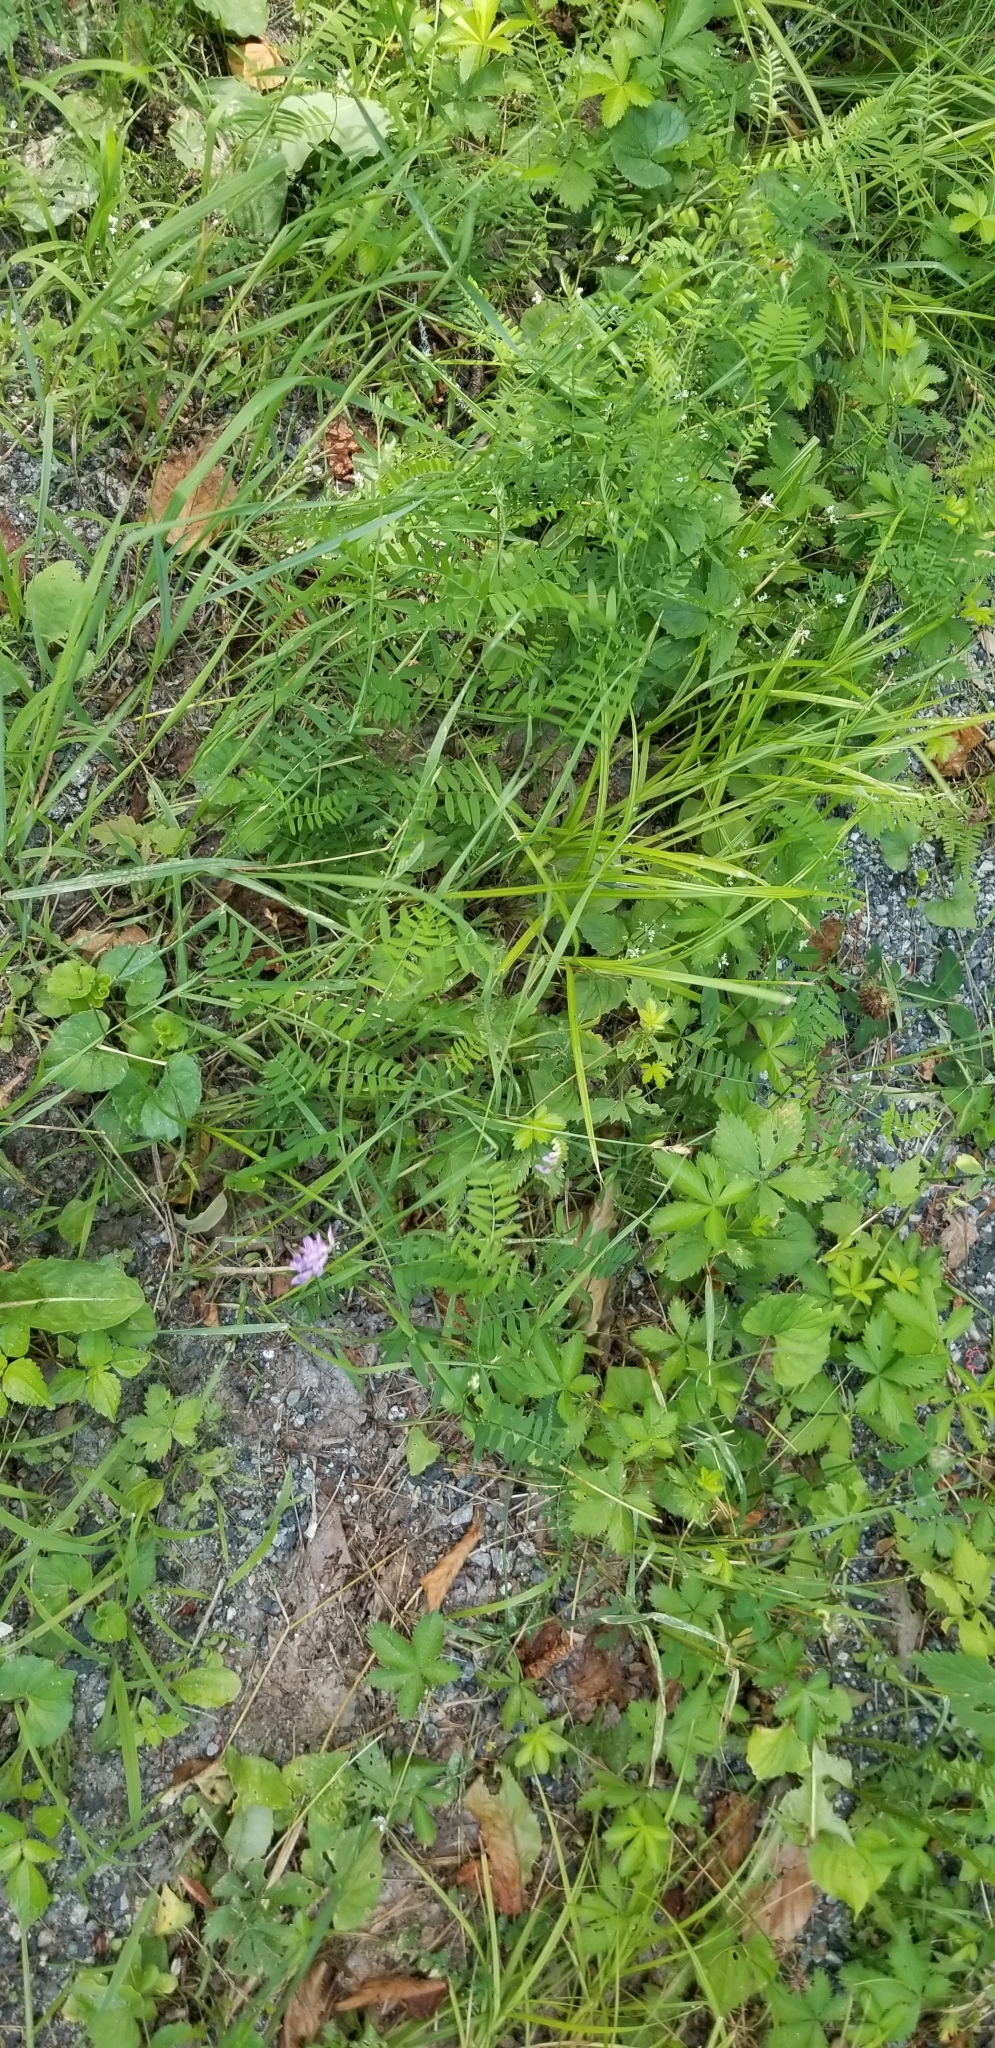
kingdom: Plantae
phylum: Tracheophyta
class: Magnoliopsida
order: Fabales
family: Fabaceae
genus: Vicia
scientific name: Vicia cracca
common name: Bird vetch
